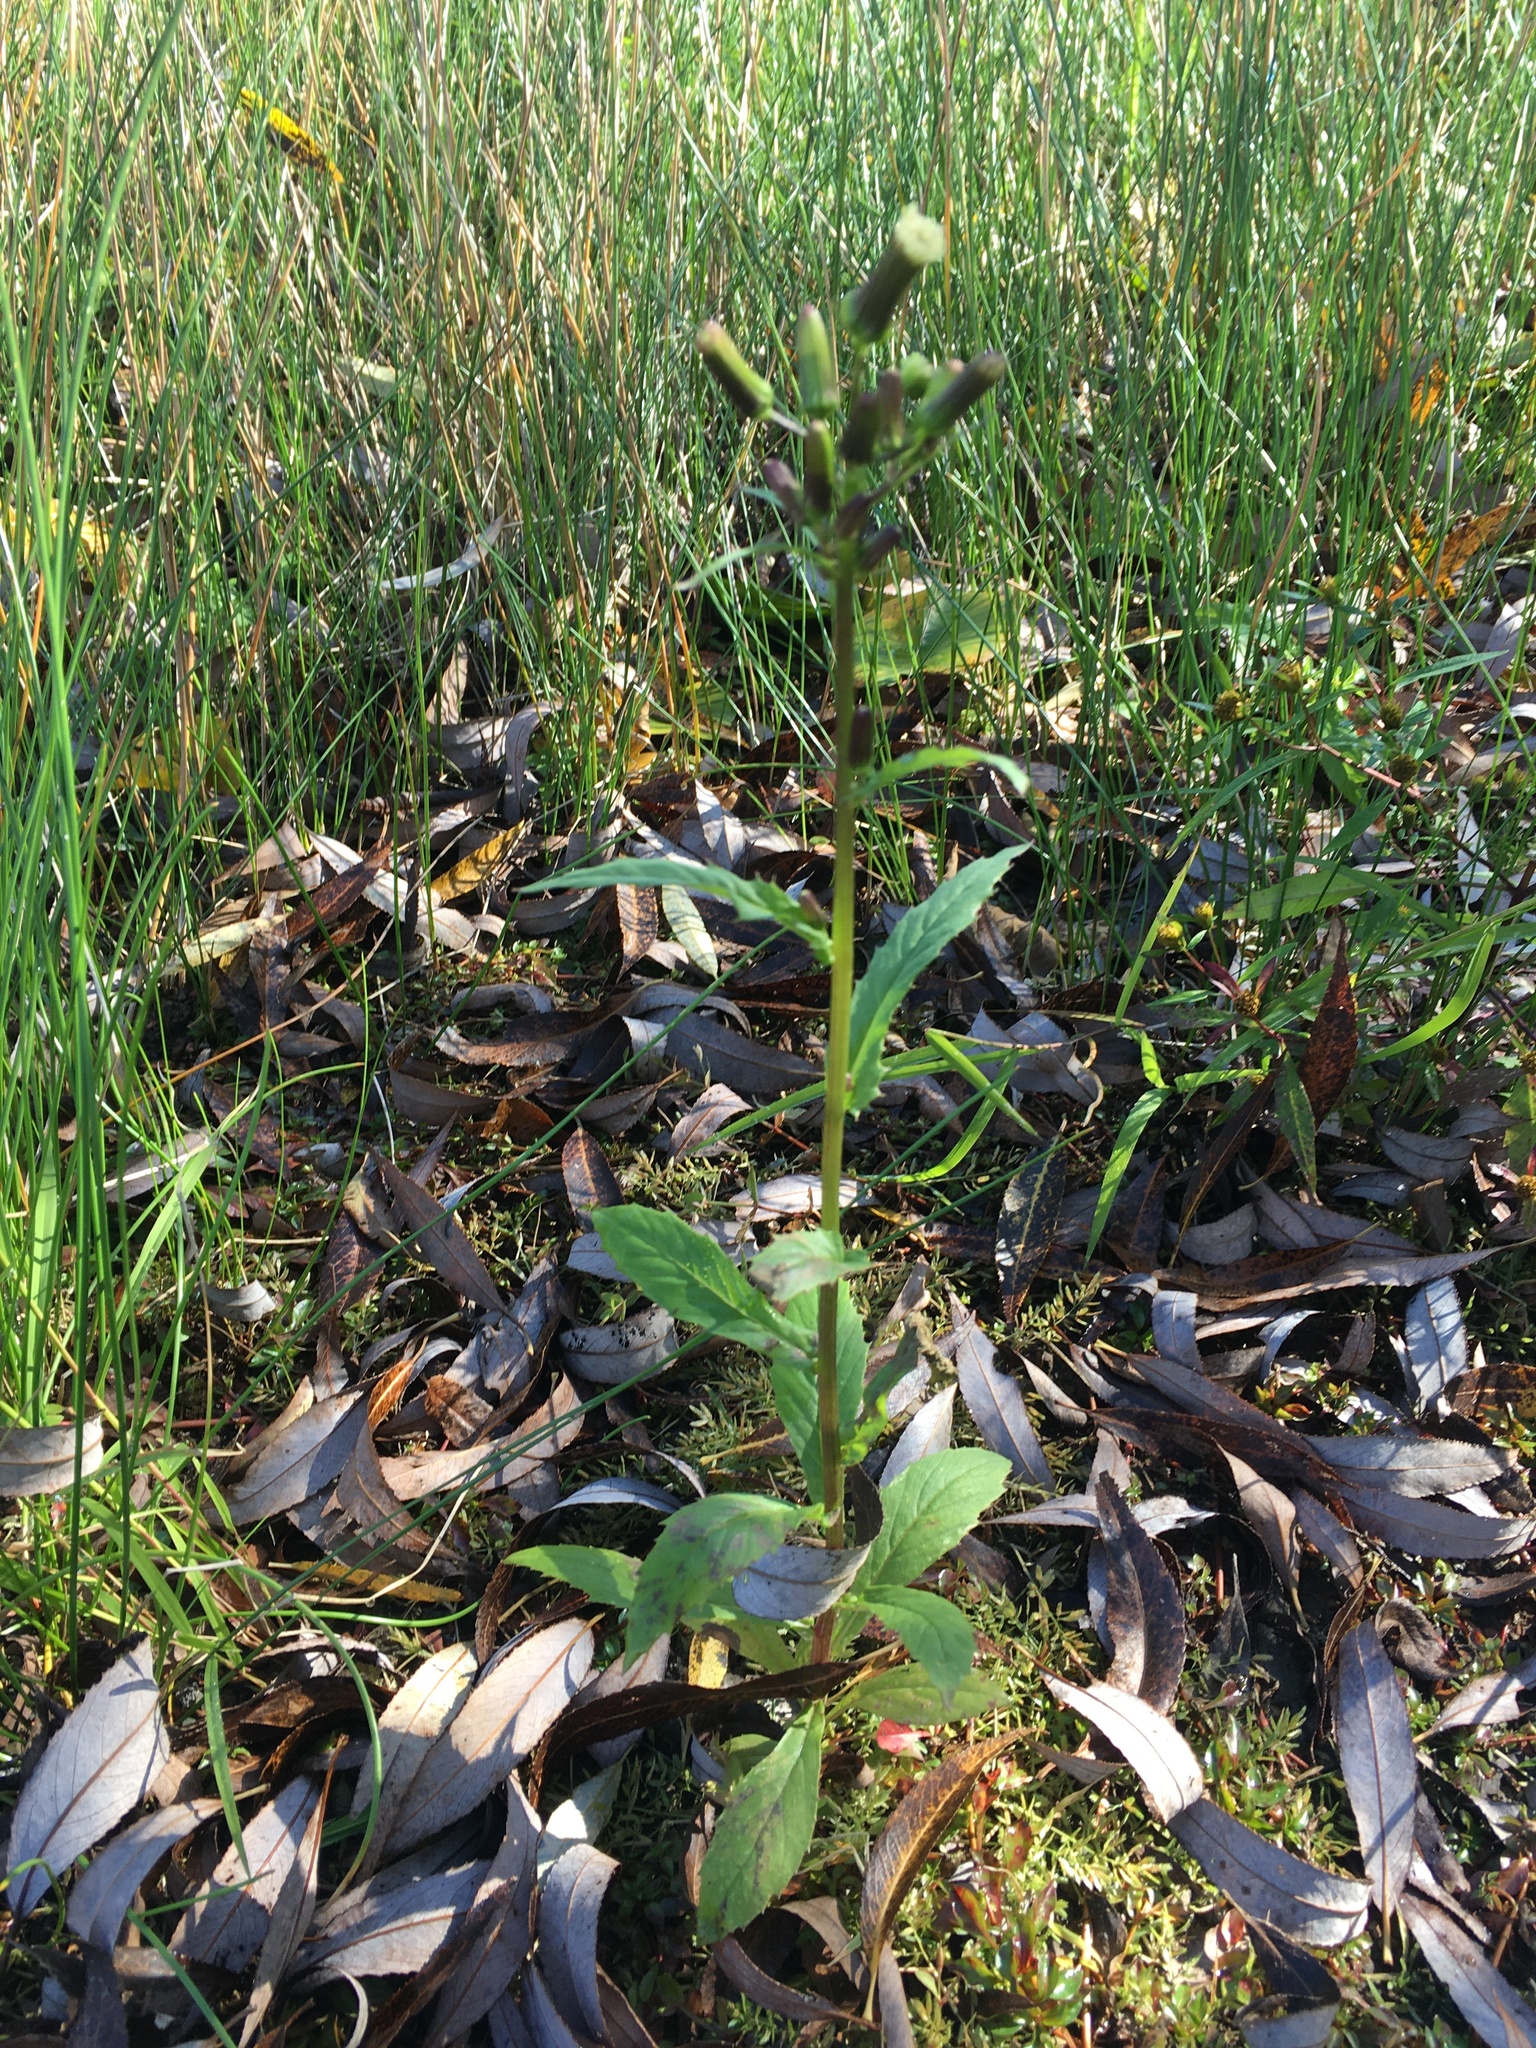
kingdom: Plantae
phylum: Tracheophyta
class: Magnoliopsida
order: Asterales
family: Asteraceae
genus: Erechtites
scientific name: Erechtites hieraciifolius
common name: American burnweed
